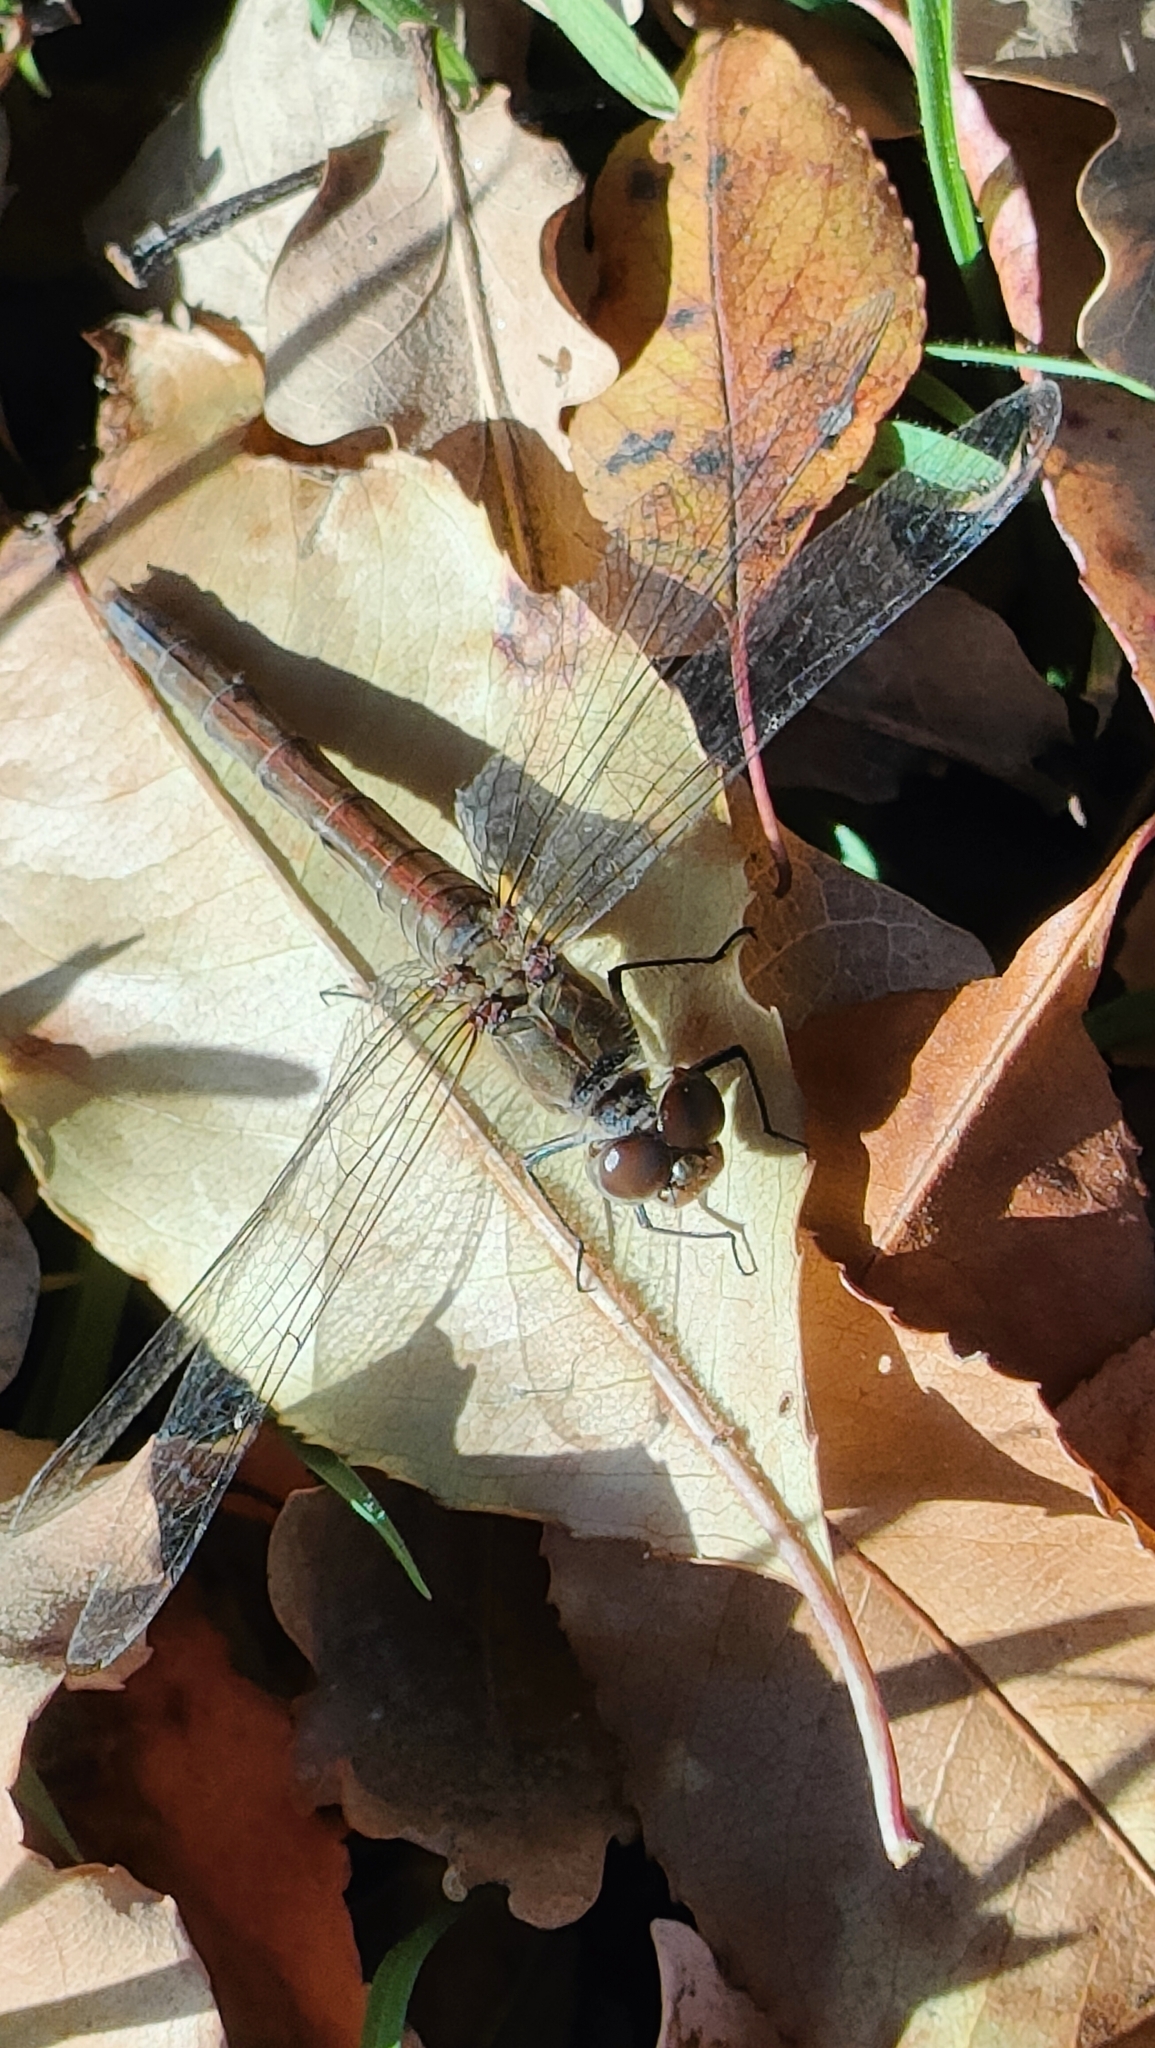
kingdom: Animalia
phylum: Arthropoda
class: Insecta
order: Odonata
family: Libellulidae
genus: Sympetrum
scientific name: Sympetrum striolatum
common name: Common darter
